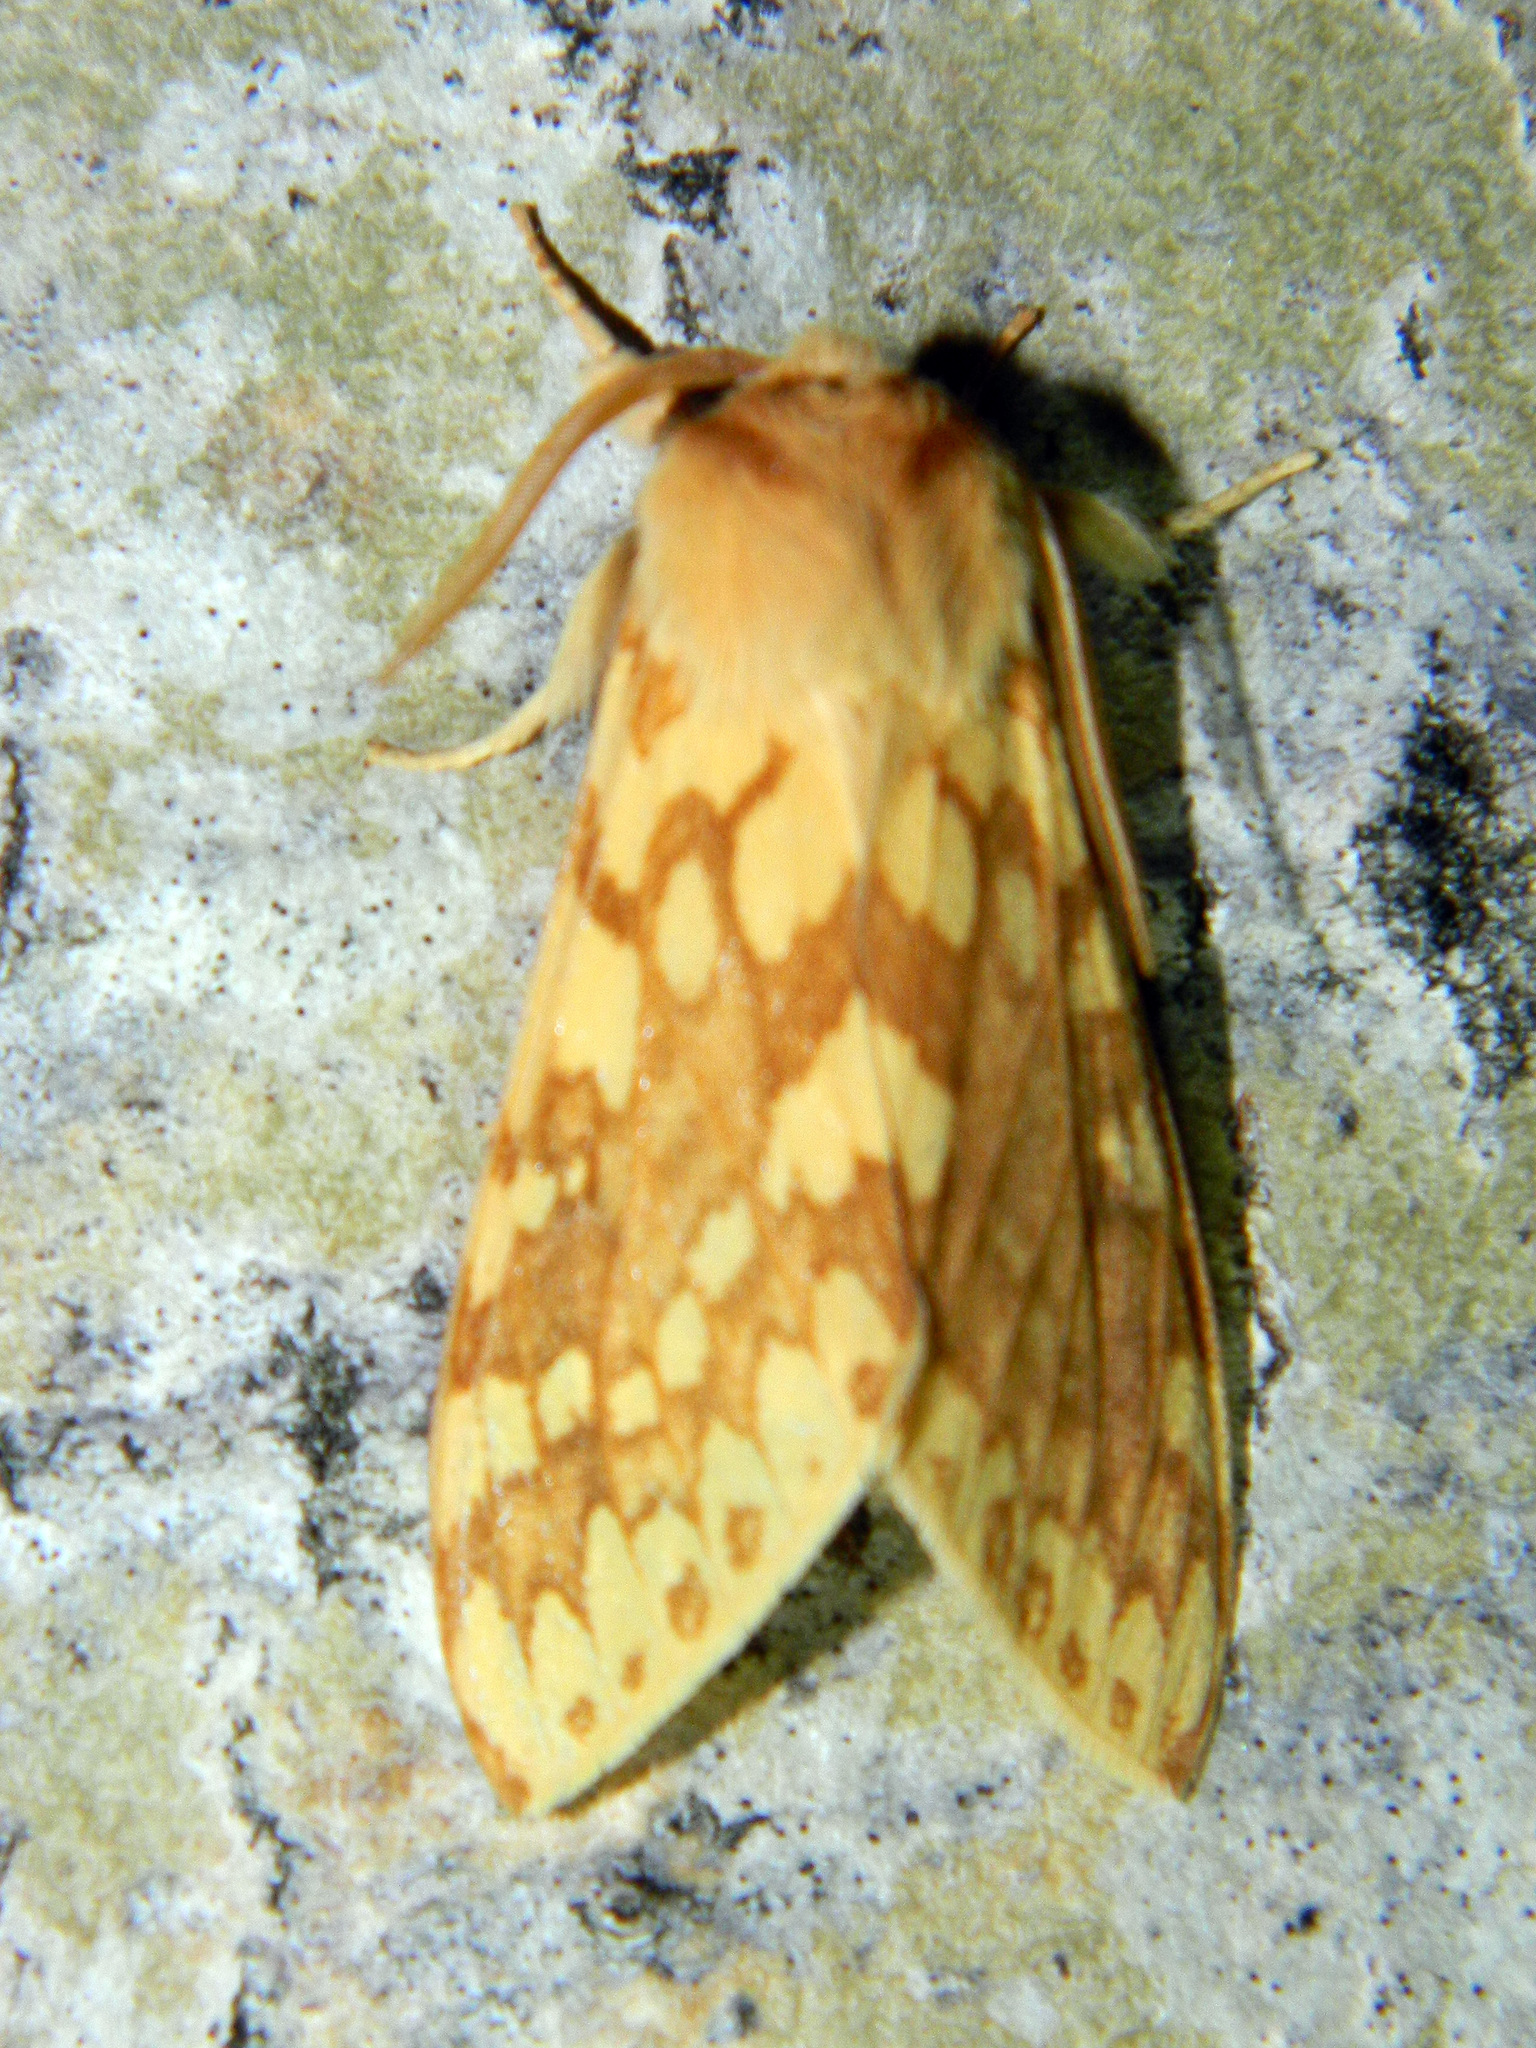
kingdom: Animalia
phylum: Arthropoda
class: Insecta
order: Lepidoptera
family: Erebidae
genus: Lophocampa
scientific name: Lophocampa maculata
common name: Spotted tussock moth
